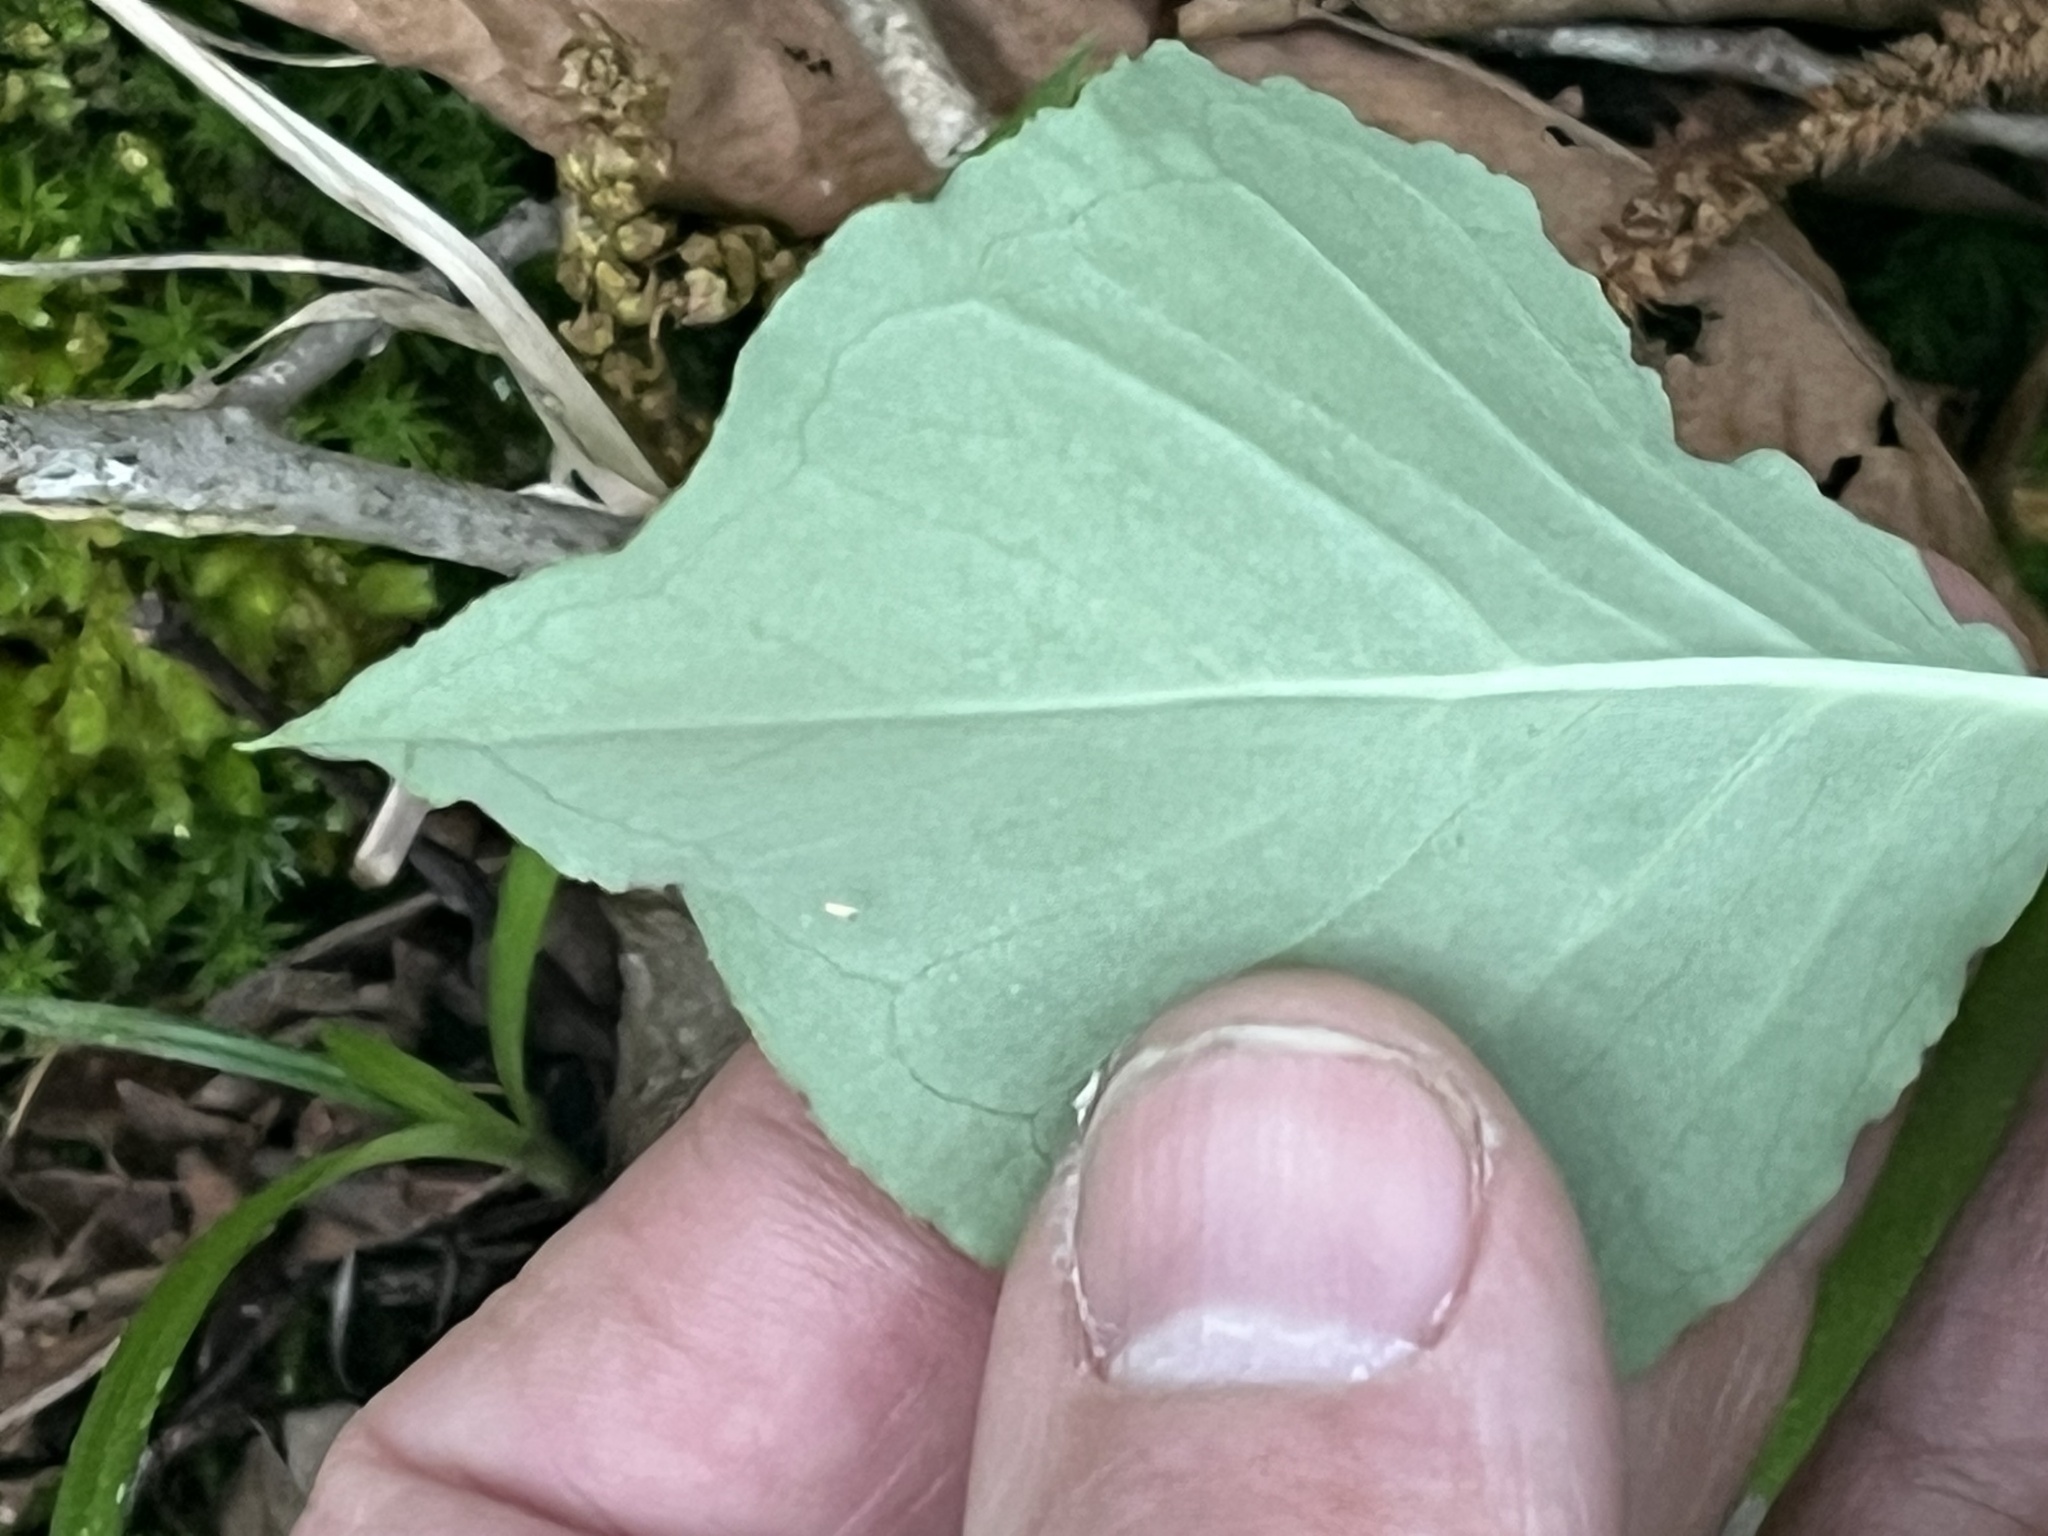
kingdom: Plantae
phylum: Tracheophyta
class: Liliopsida
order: Alismatales
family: Araceae
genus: Arisaema
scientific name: Arisaema triphyllum
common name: Jack-in-the-pulpit
